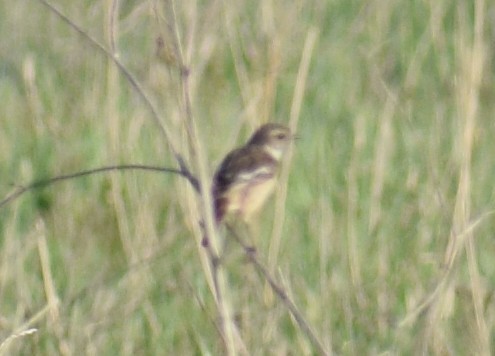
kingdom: Animalia
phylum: Chordata
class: Aves
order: Passeriformes
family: Muscicapidae
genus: Saxicola
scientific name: Saxicola rubicola
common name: European stonechat
